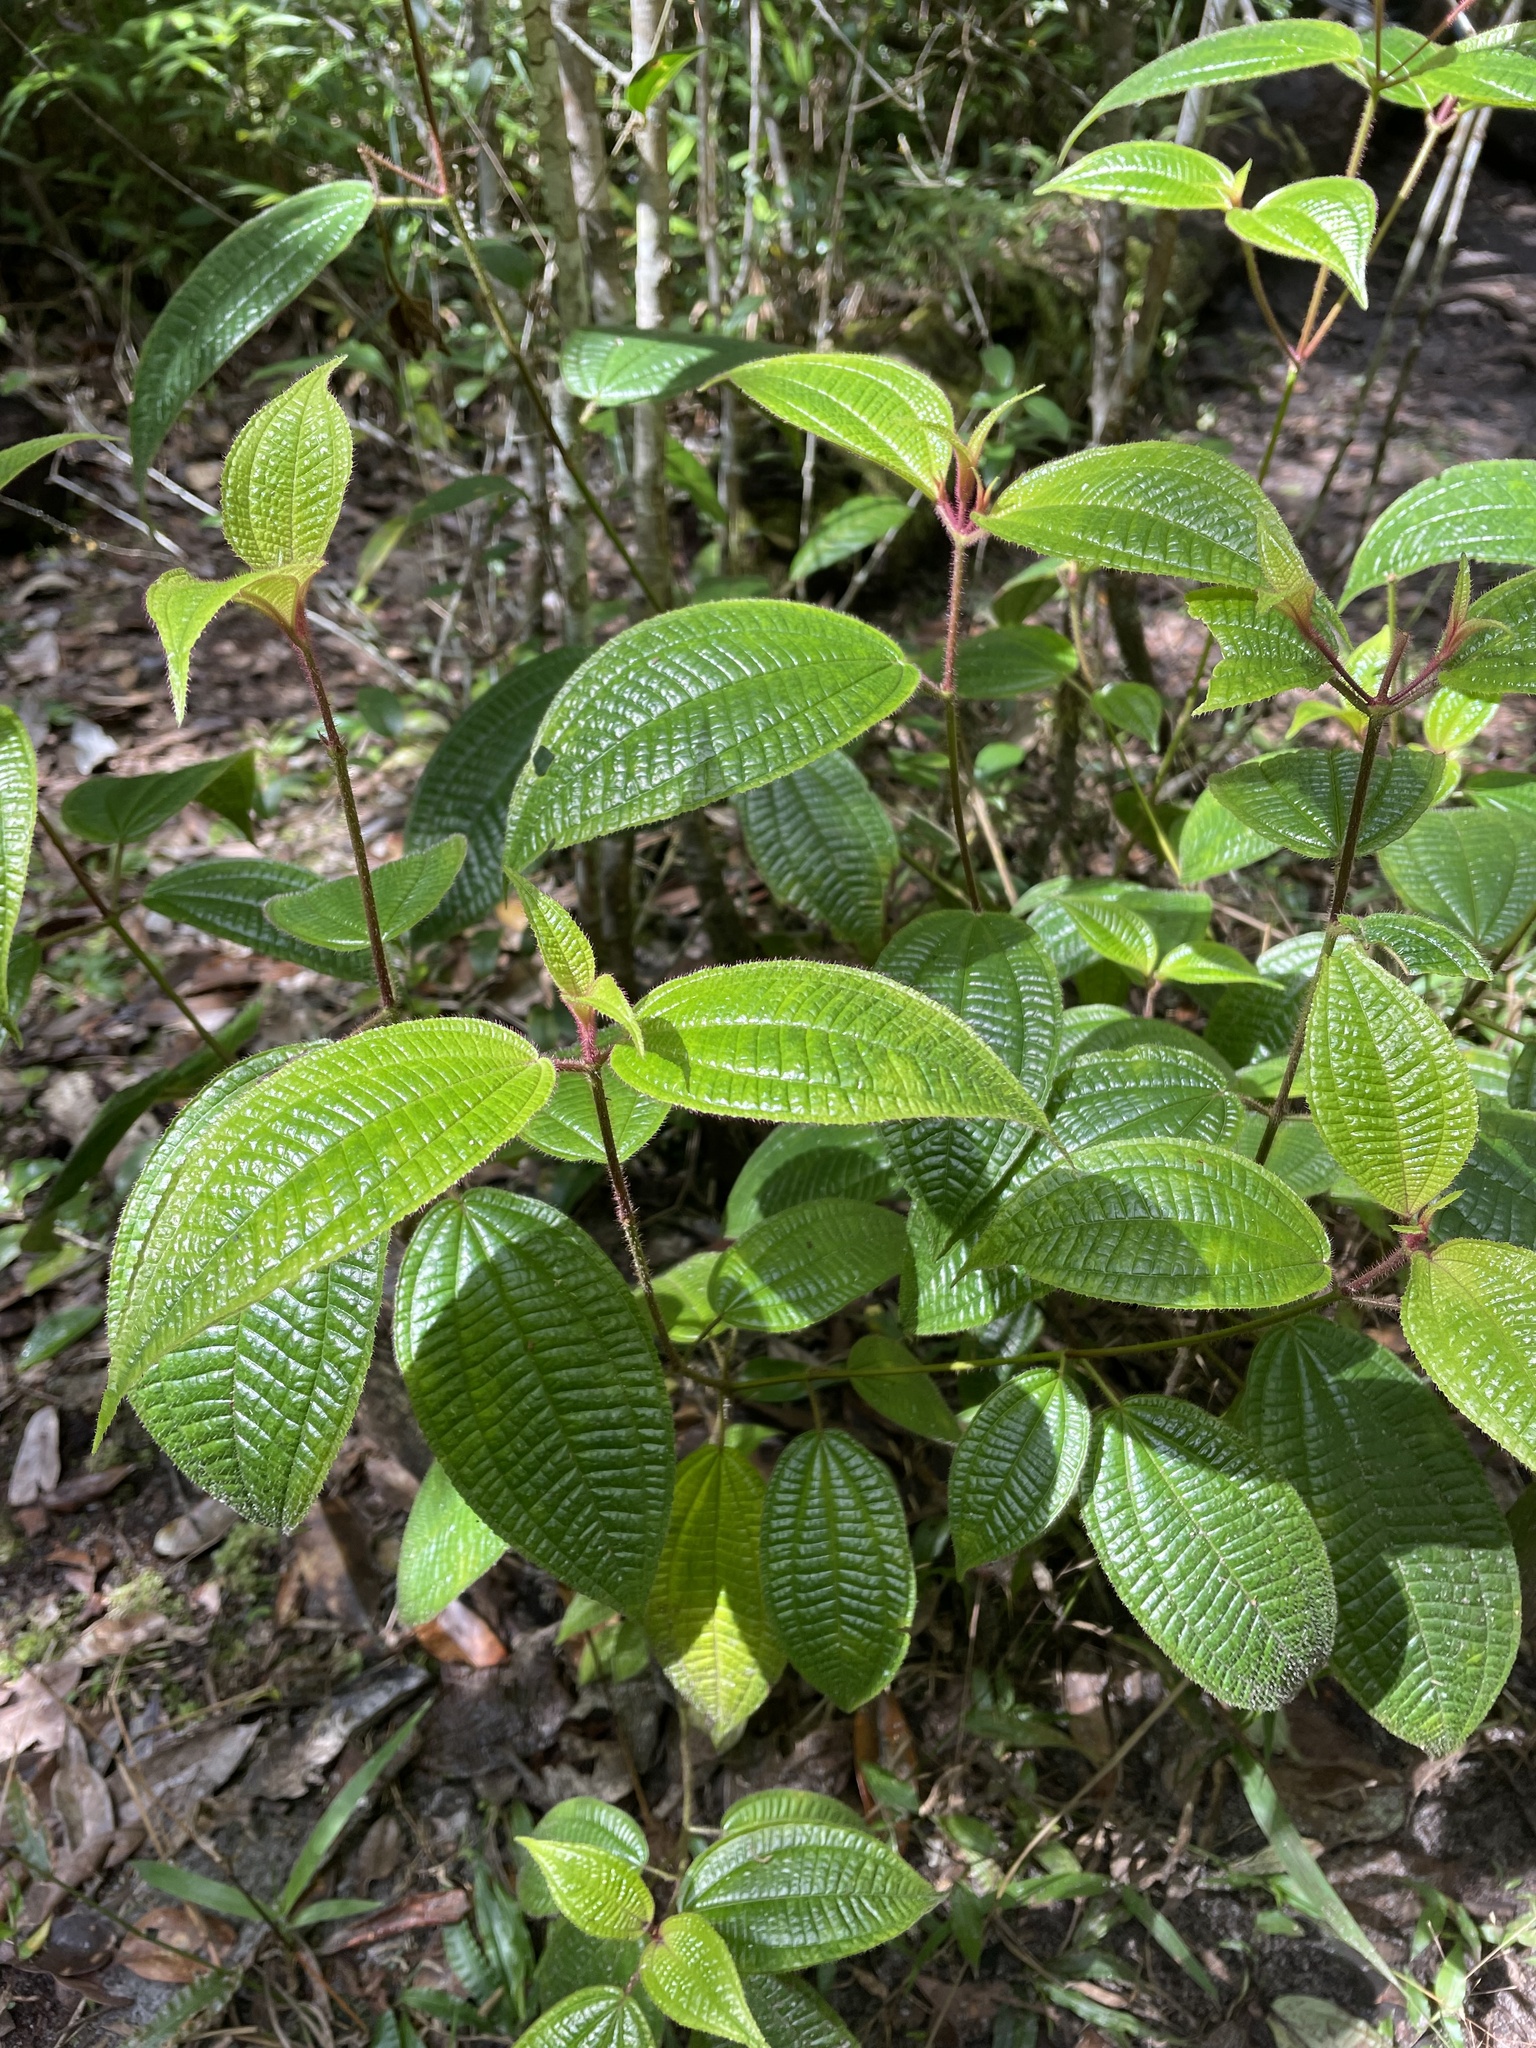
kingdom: Plantae
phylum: Tracheophyta
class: Magnoliopsida
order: Myrtales
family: Melastomataceae
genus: Miconia
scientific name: Miconia crenata
